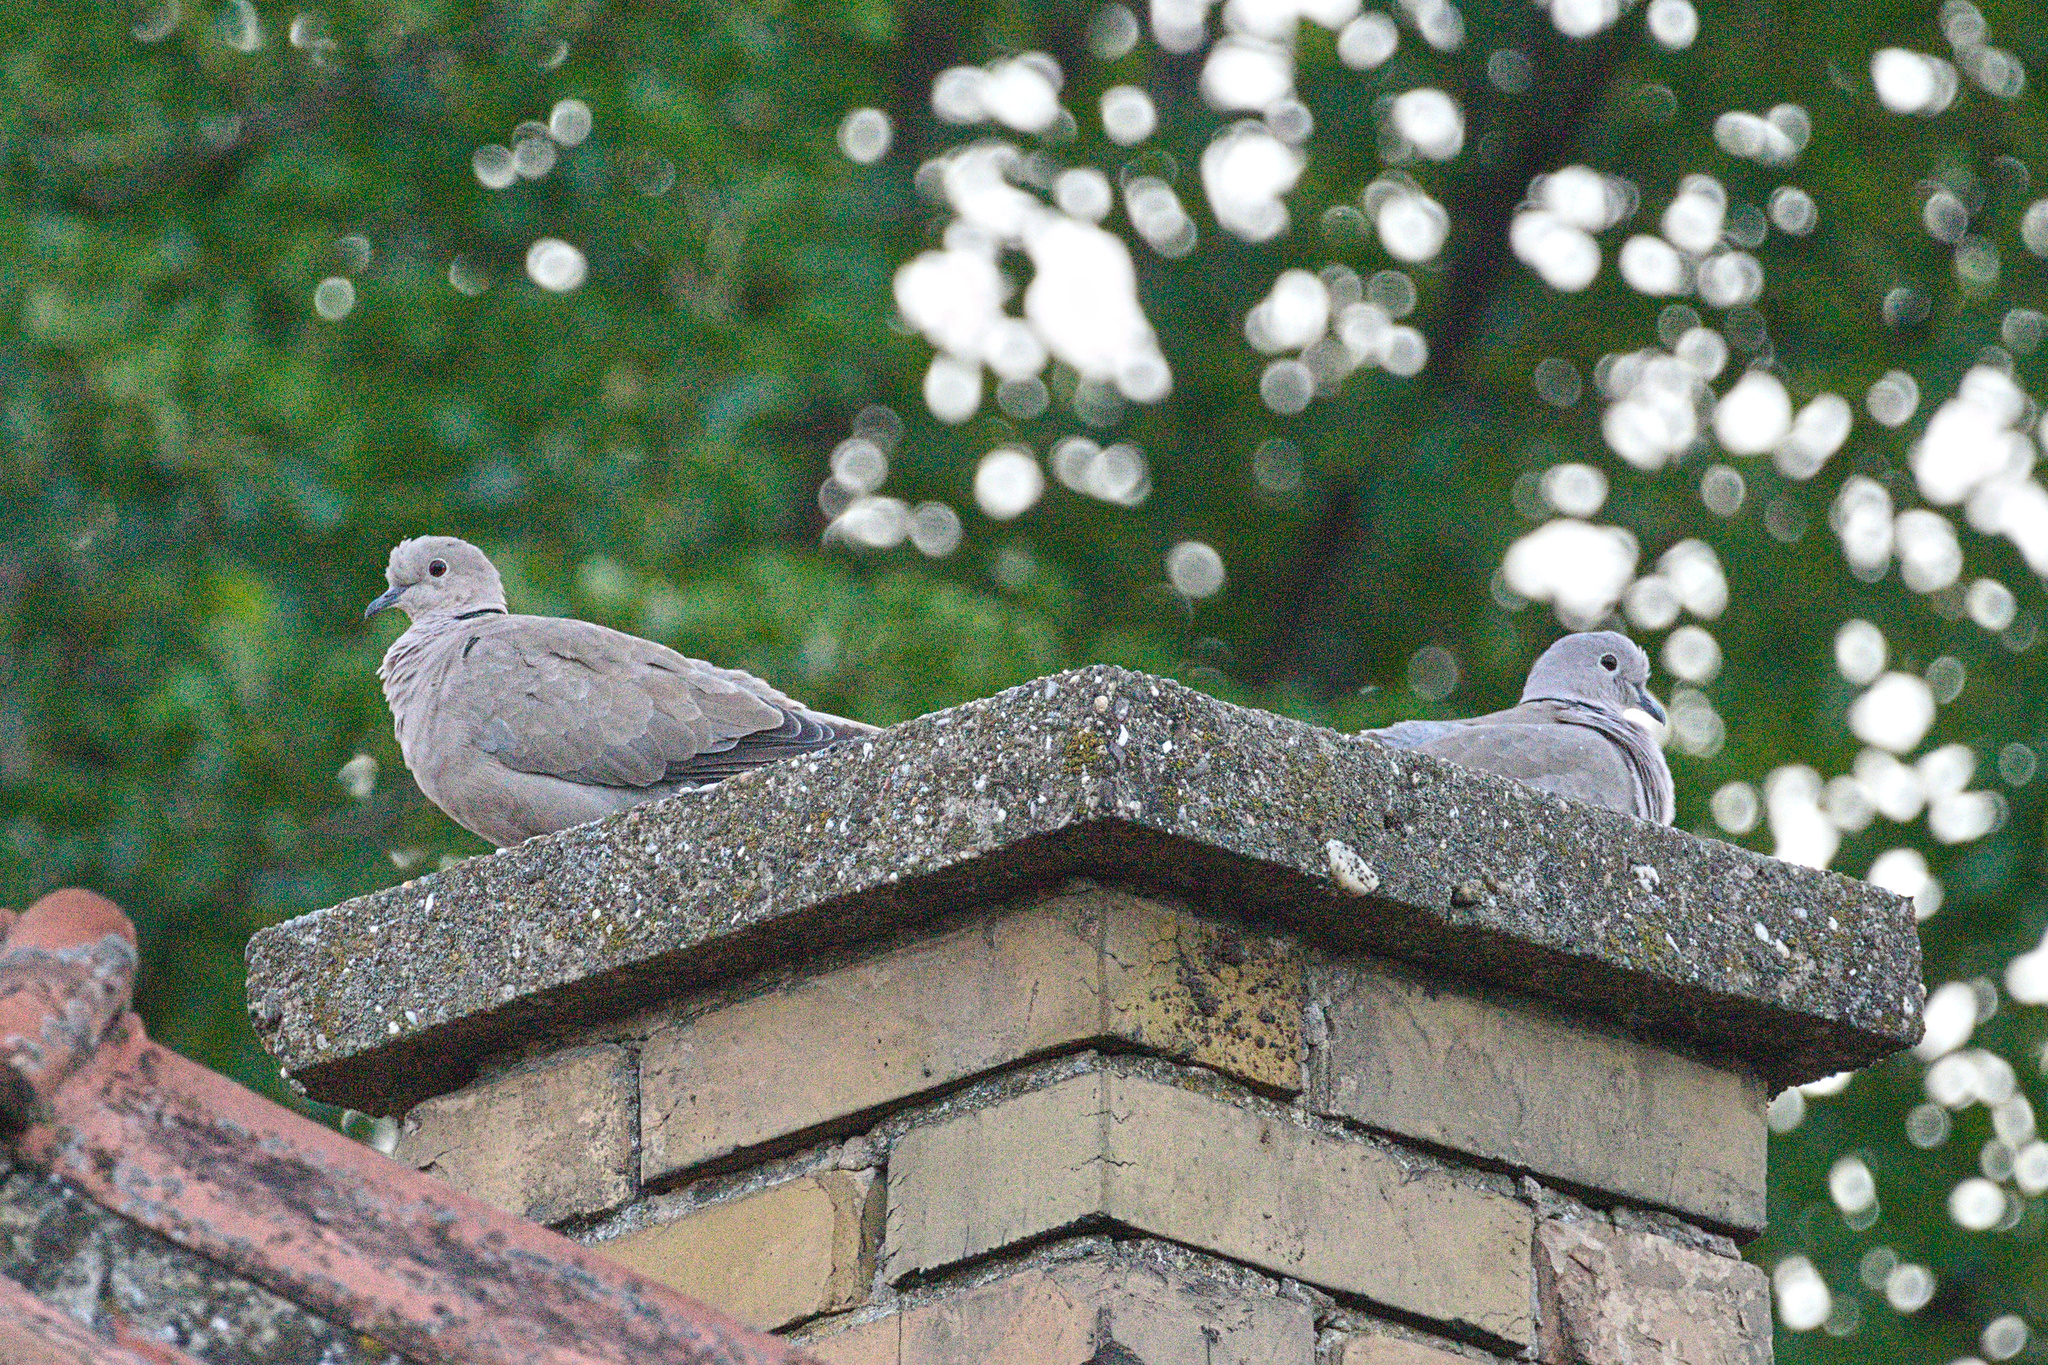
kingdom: Animalia
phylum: Chordata
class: Aves
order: Columbiformes
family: Columbidae
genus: Streptopelia
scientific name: Streptopelia decaocto
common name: Eurasian collared dove
